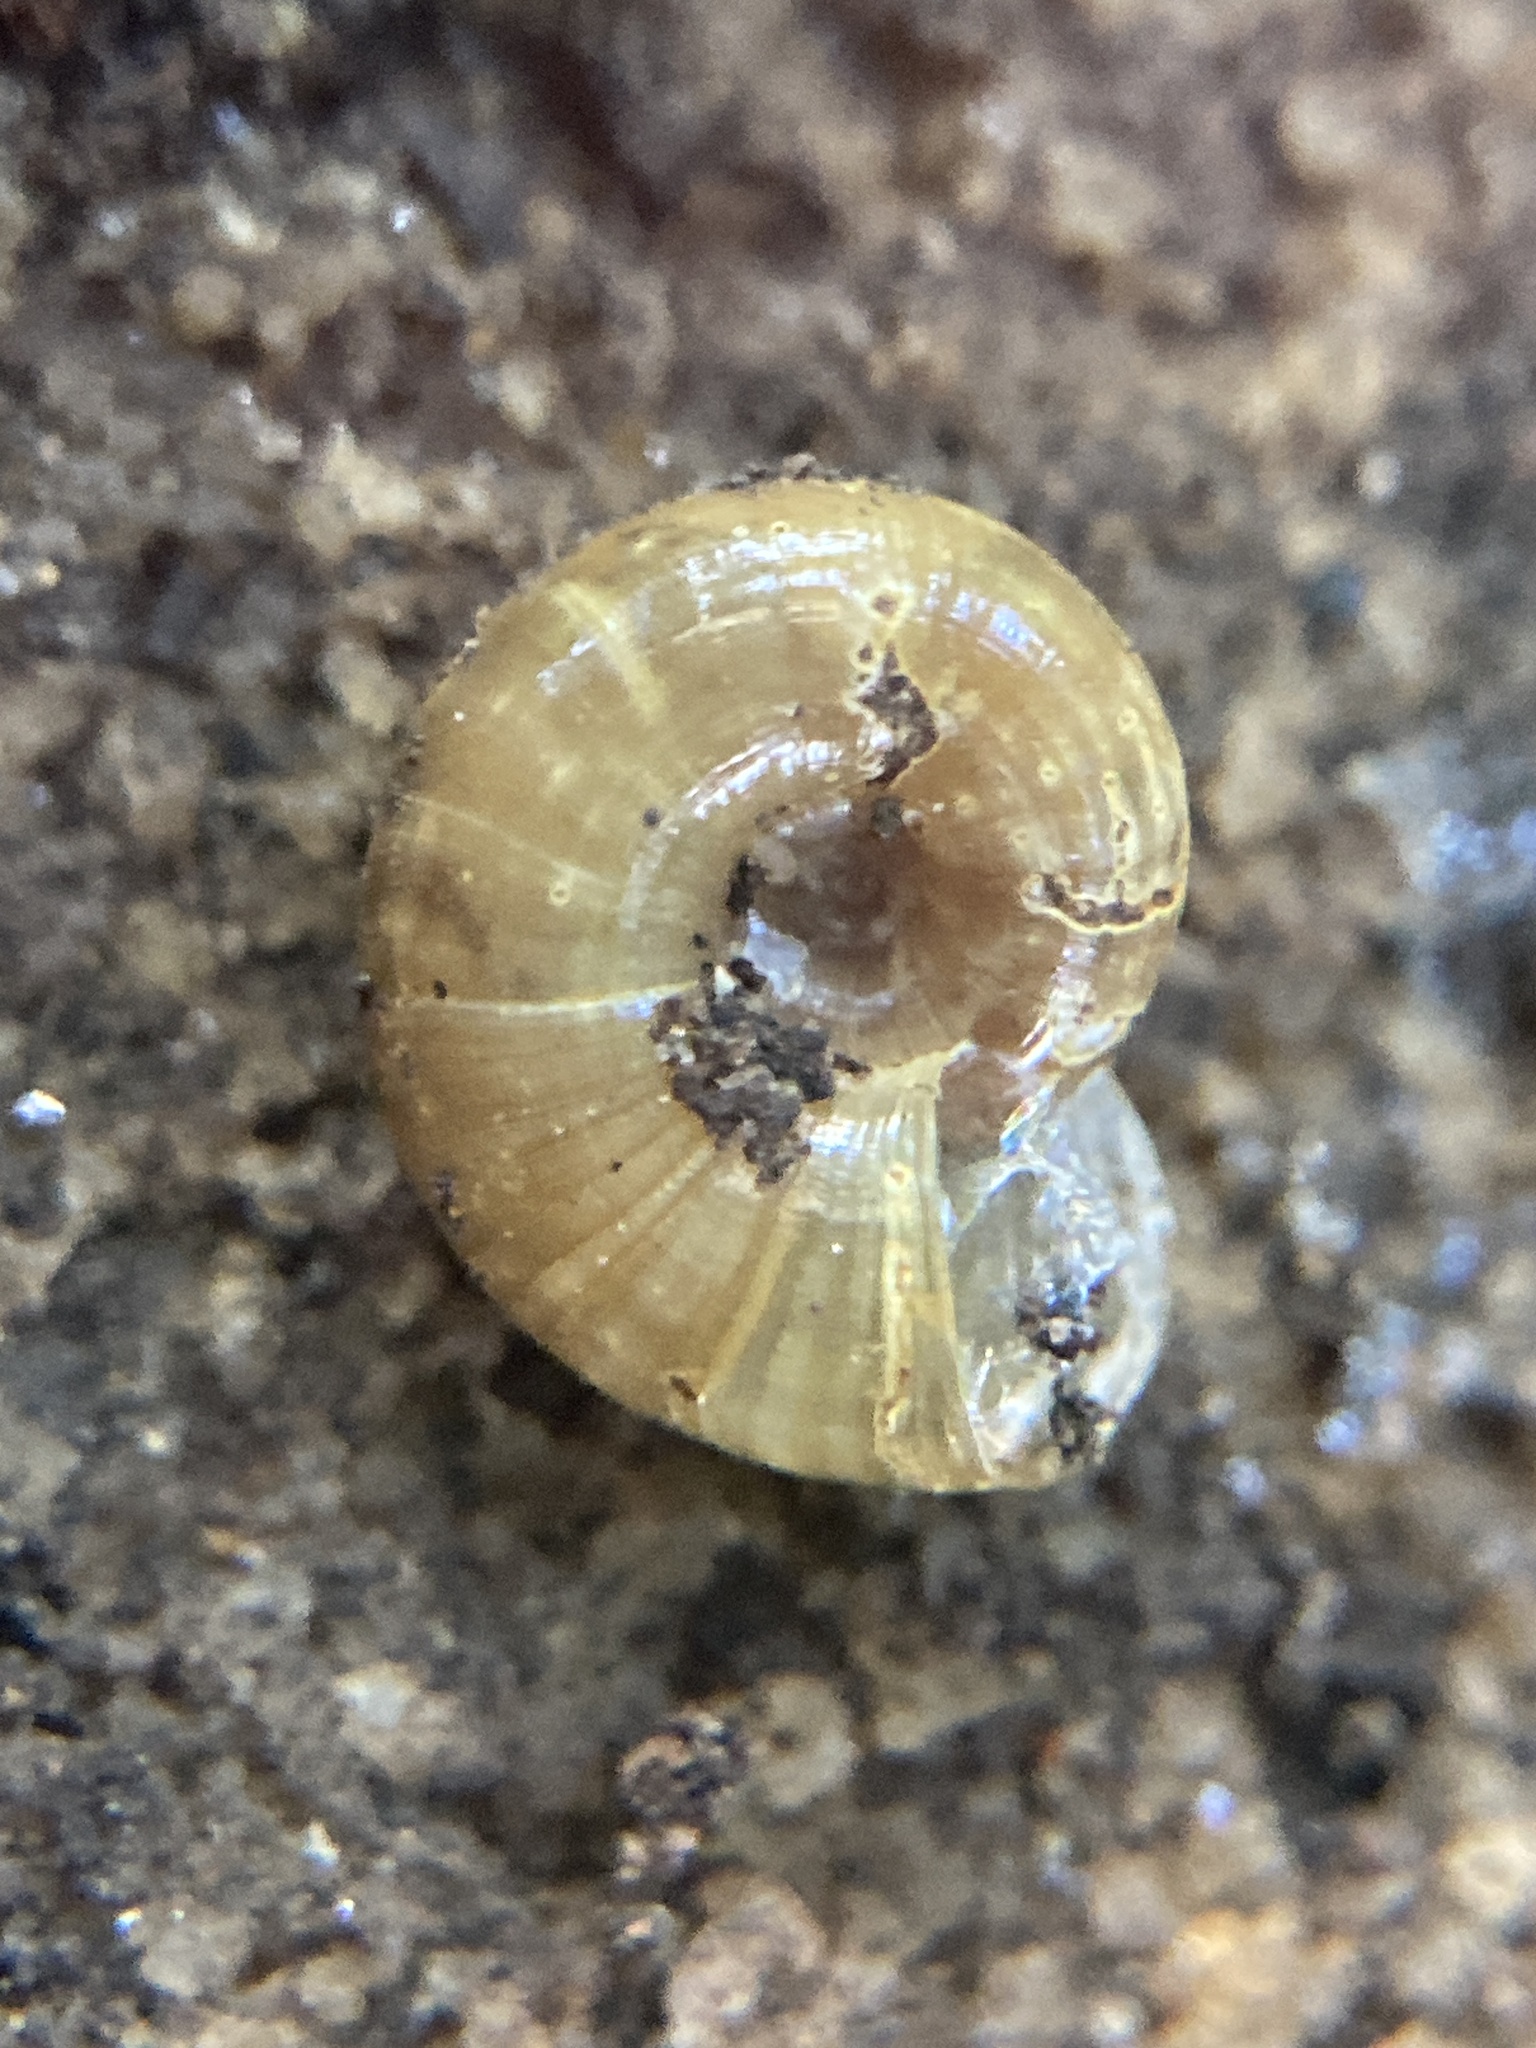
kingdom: Animalia
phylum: Mollusca
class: Gastropoda
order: Stylommatophora
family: Rhytididae
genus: Vitellidelos
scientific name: Vitellidelos dulcis
